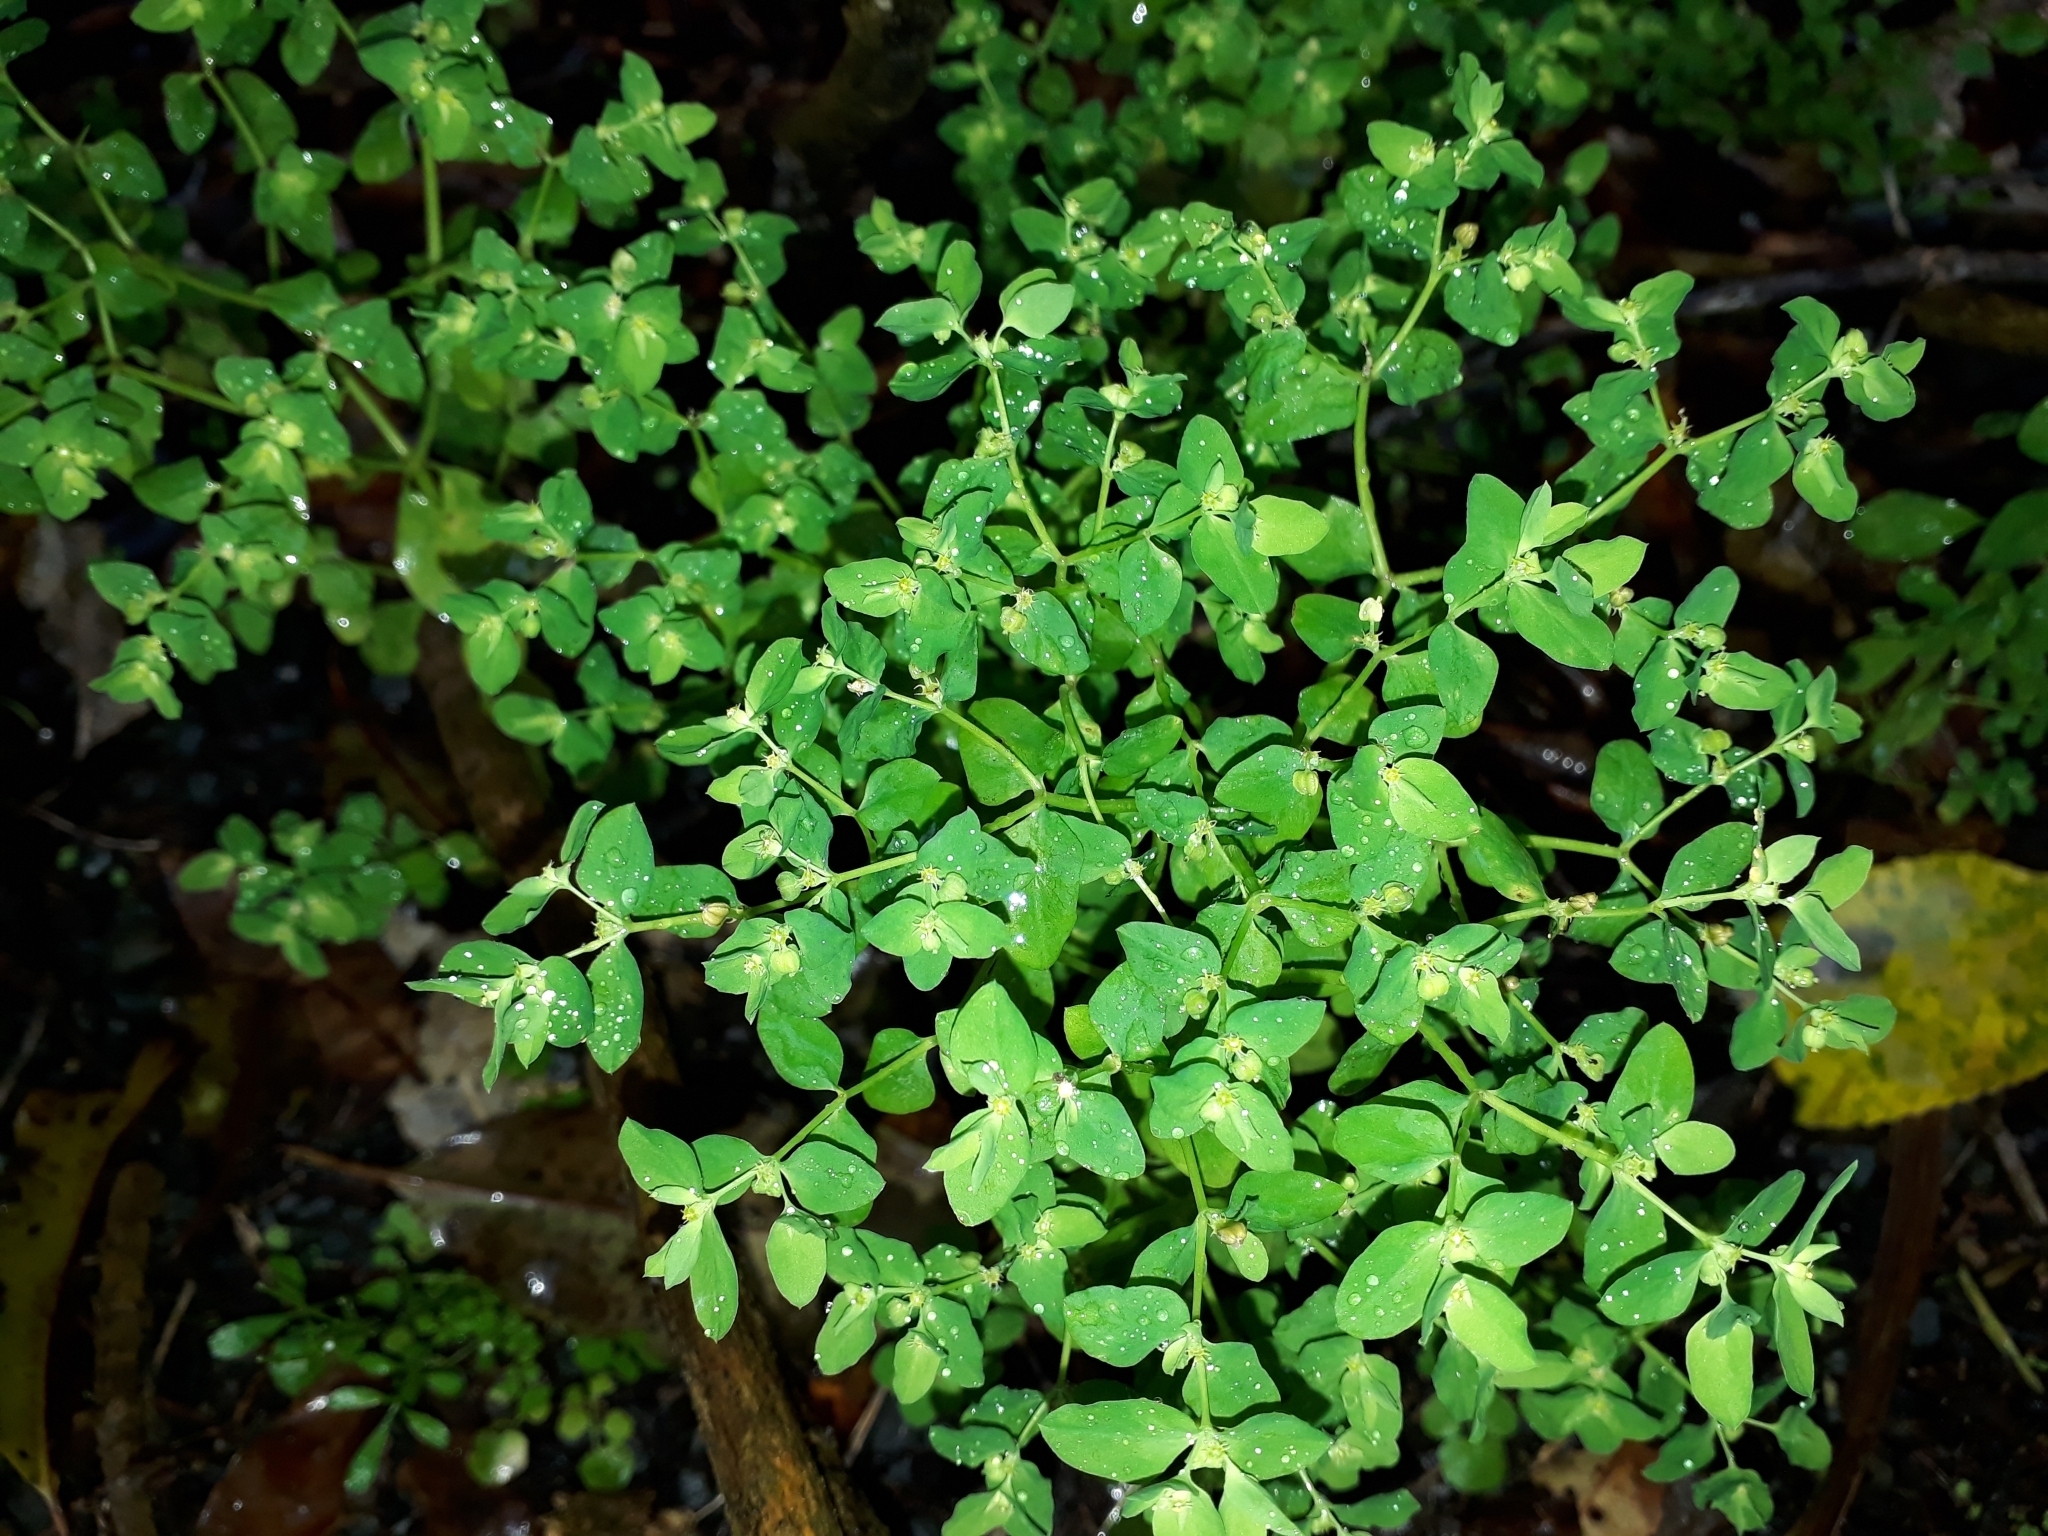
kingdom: Plantae
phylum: Tracheophyta
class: Magnoliopsida
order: Malpighiales
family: Euphorbiaceae
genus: Euphorbia
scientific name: Euphorbia peplus
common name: Petty spurge
